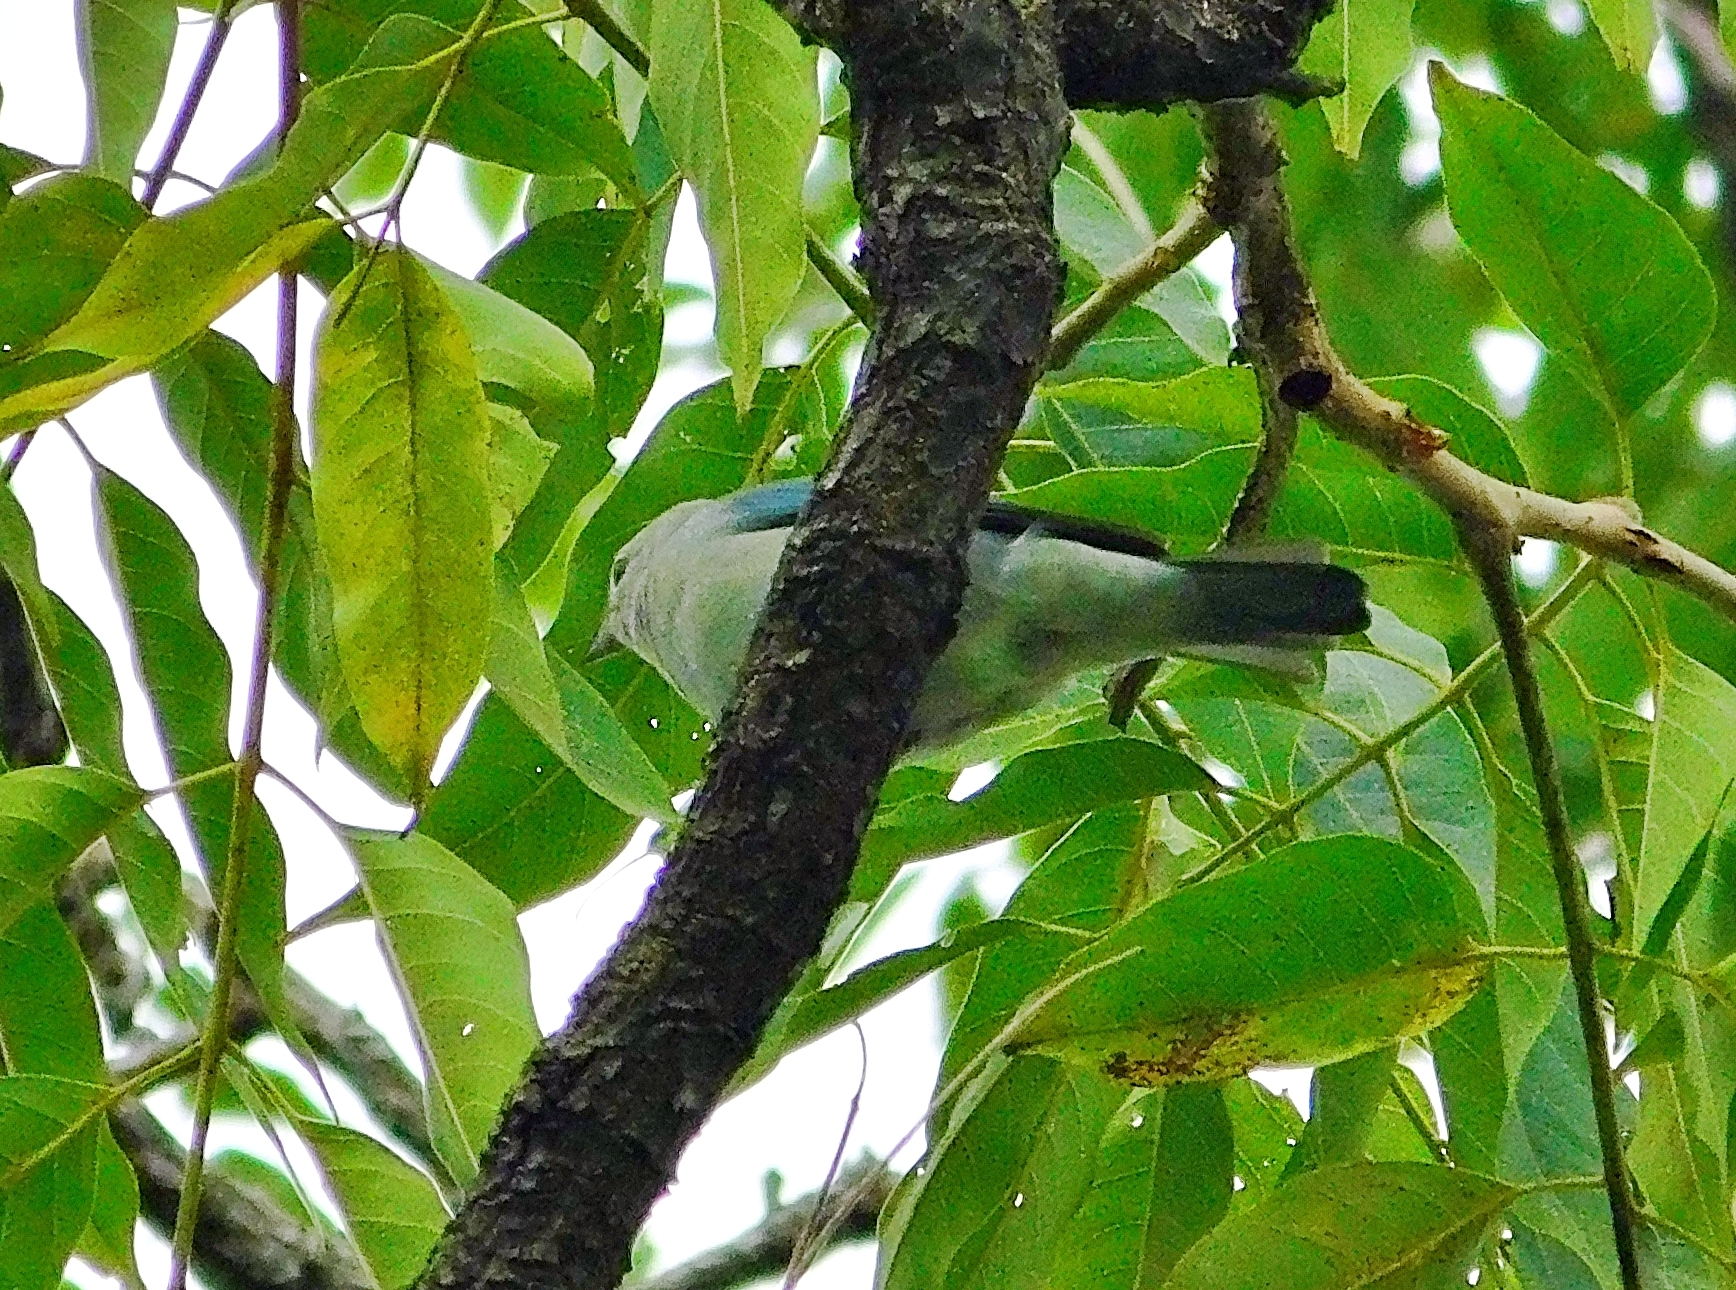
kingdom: Animalia
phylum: Chordata
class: Aves
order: Passeriformes
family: Thraupidae
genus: Thraupis
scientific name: Thraupis episcopus
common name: Blue-grey tanager
